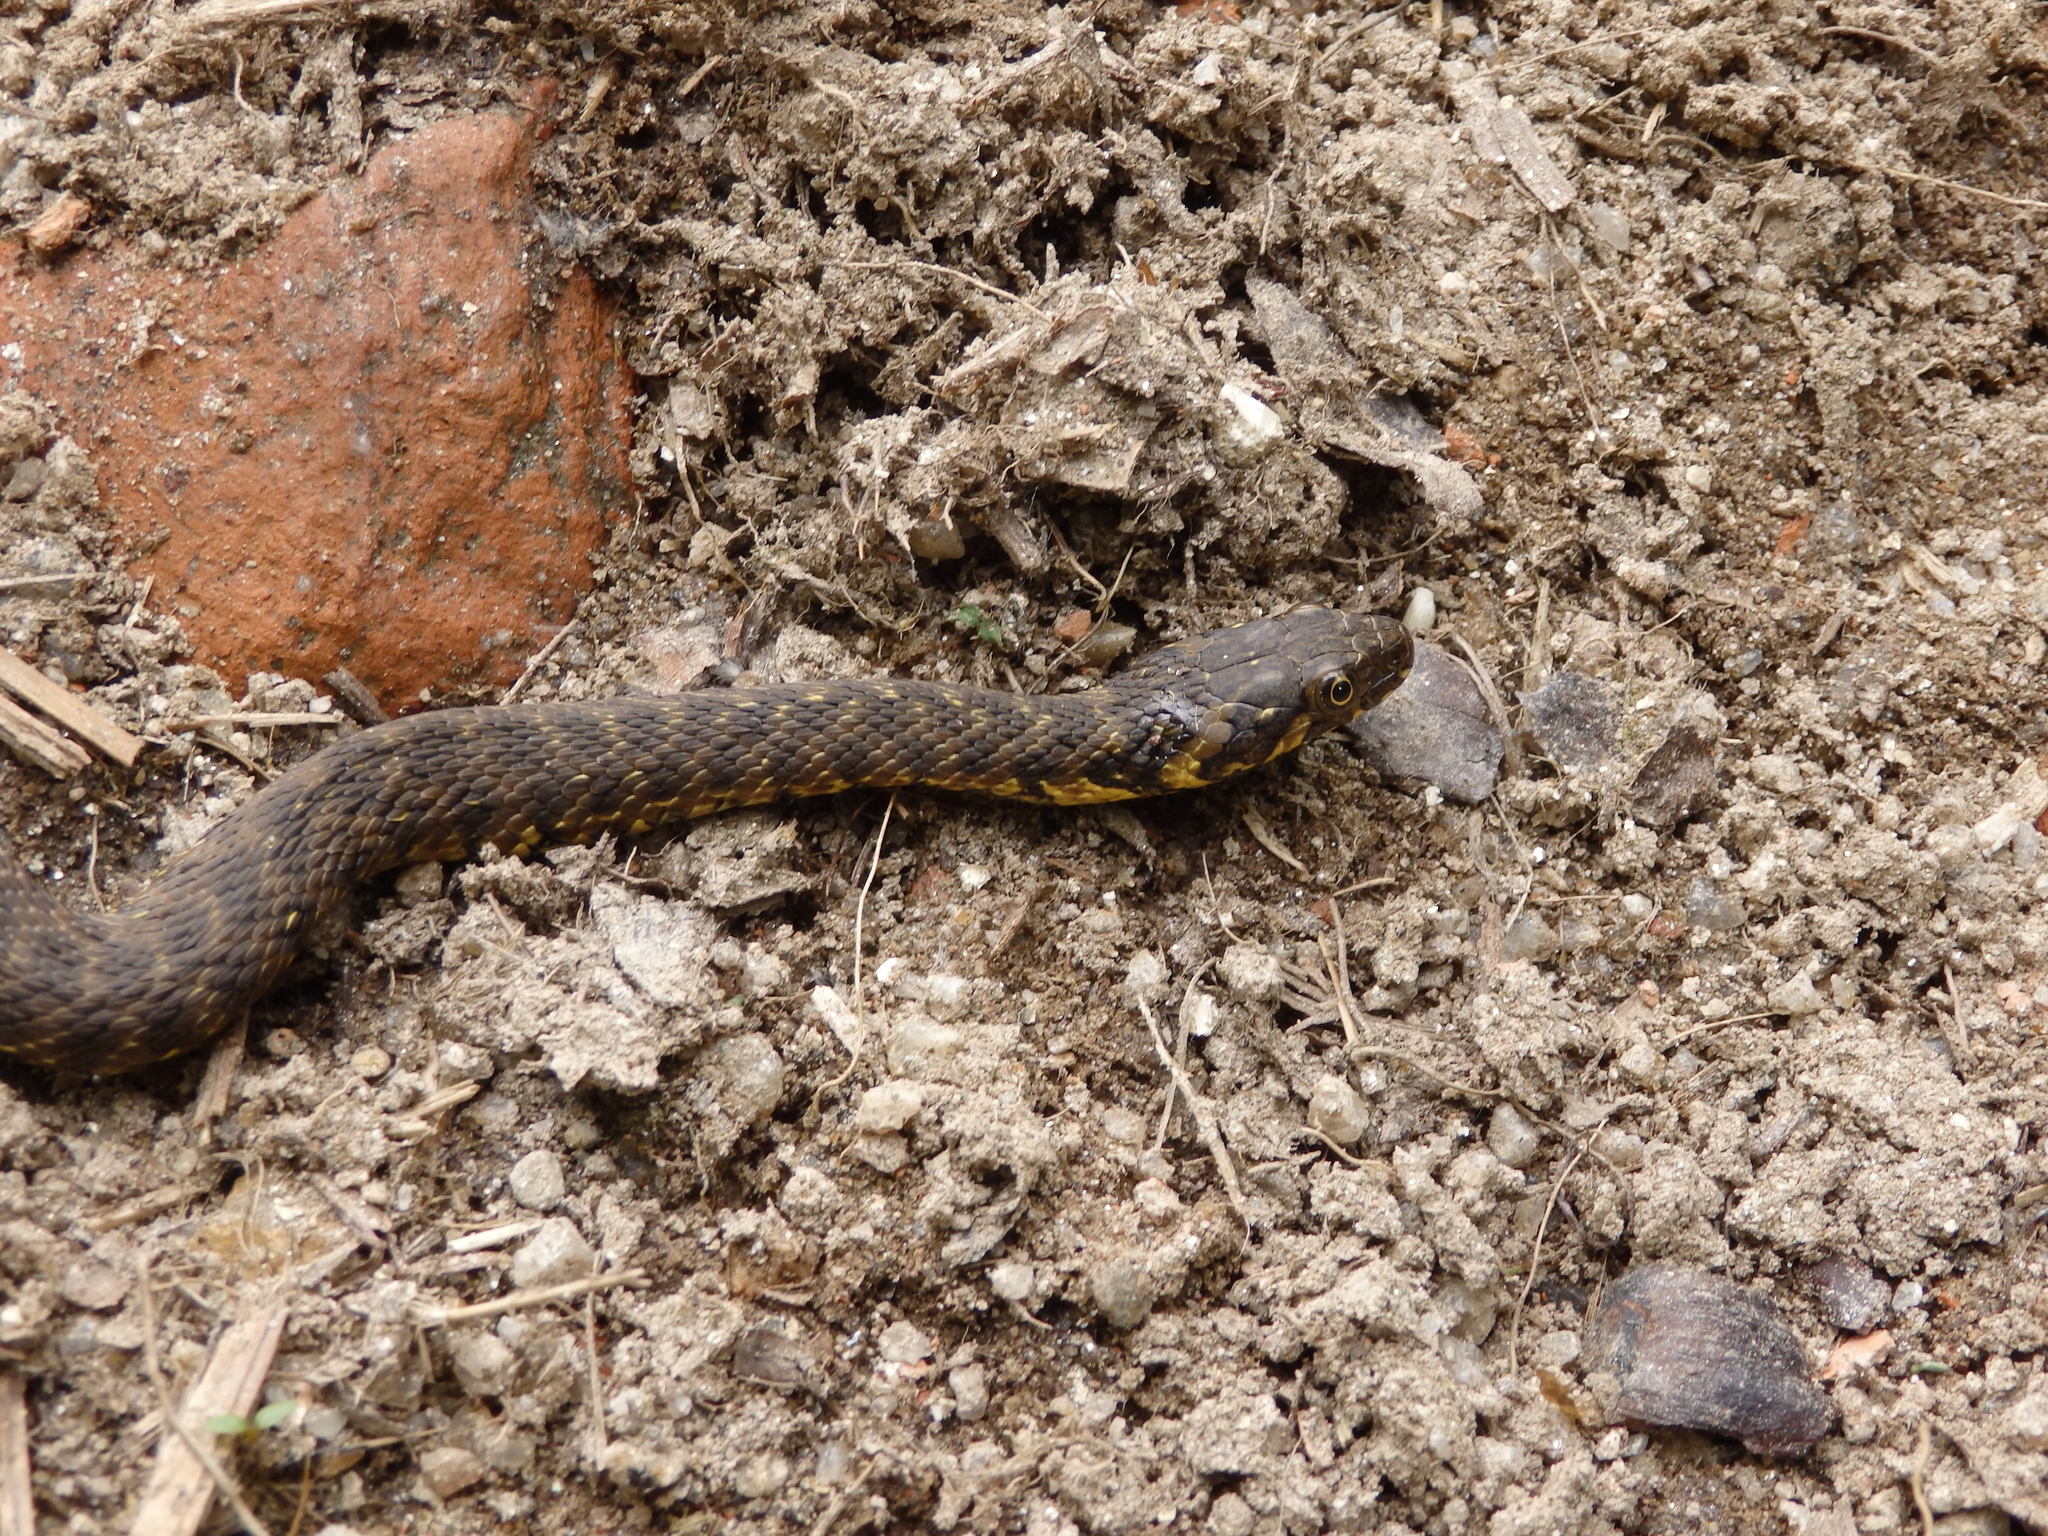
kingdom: Animalia
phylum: Chordata
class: Squamata
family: Colubridae
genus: Natrix
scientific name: Natrix maura
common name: Viperine water snake
